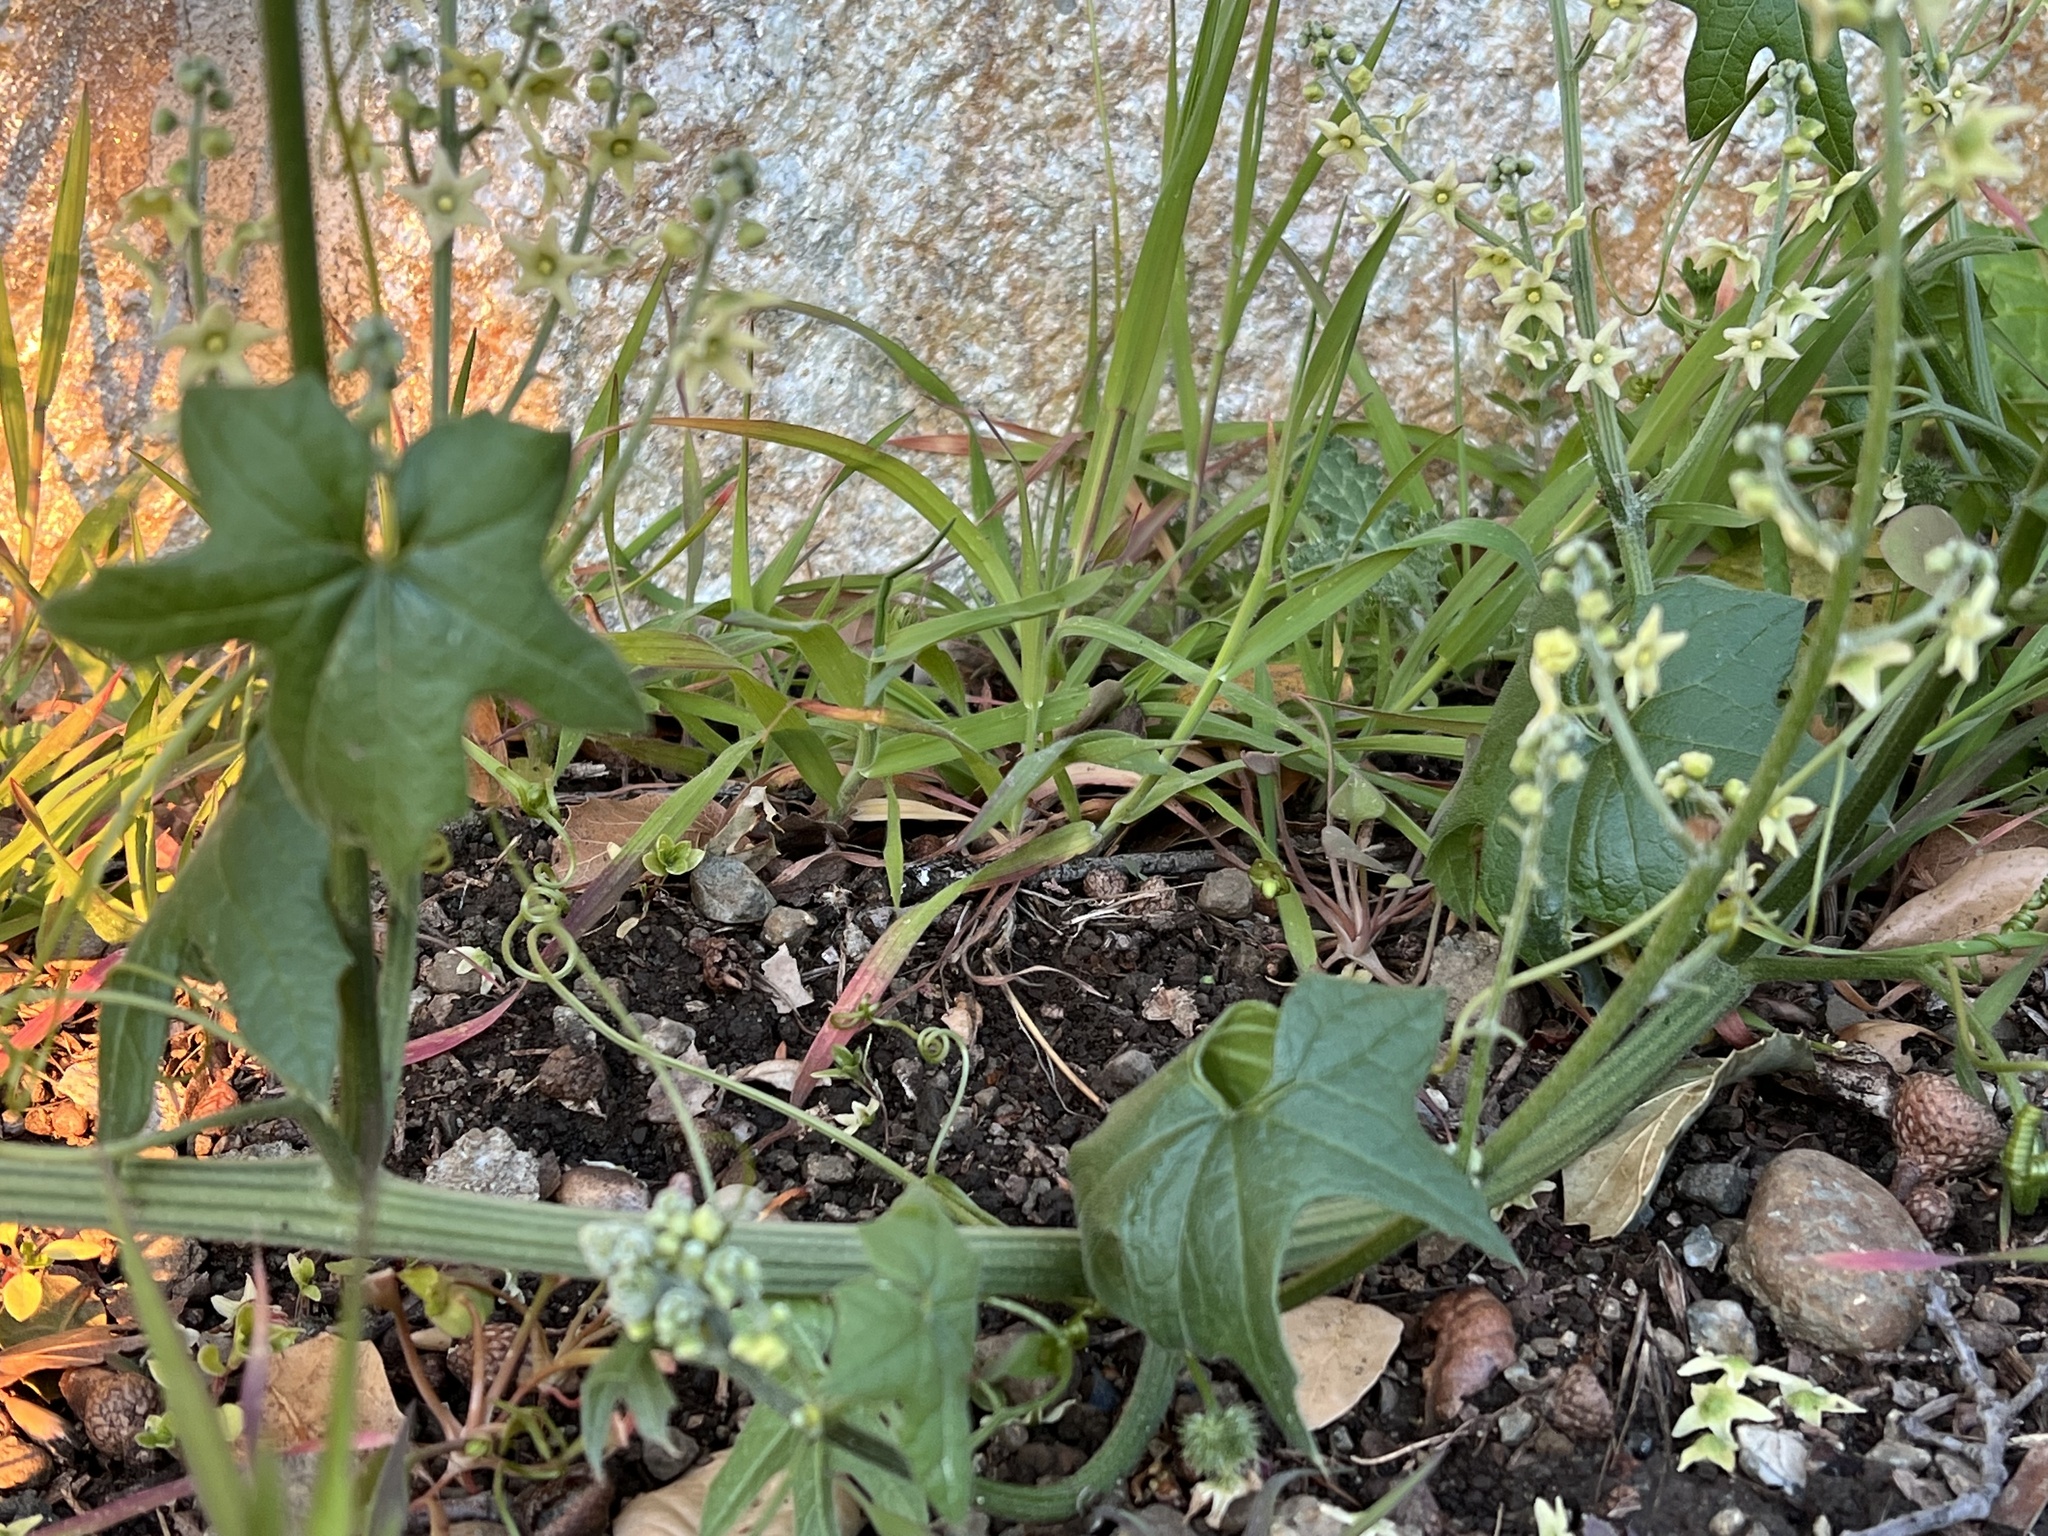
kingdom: Plantae
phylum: Tracheophyta
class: Magnoliopsida
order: Cucurbitales
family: Cucurbitaceae
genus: Marah
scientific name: Marah fabacea
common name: California manroot
